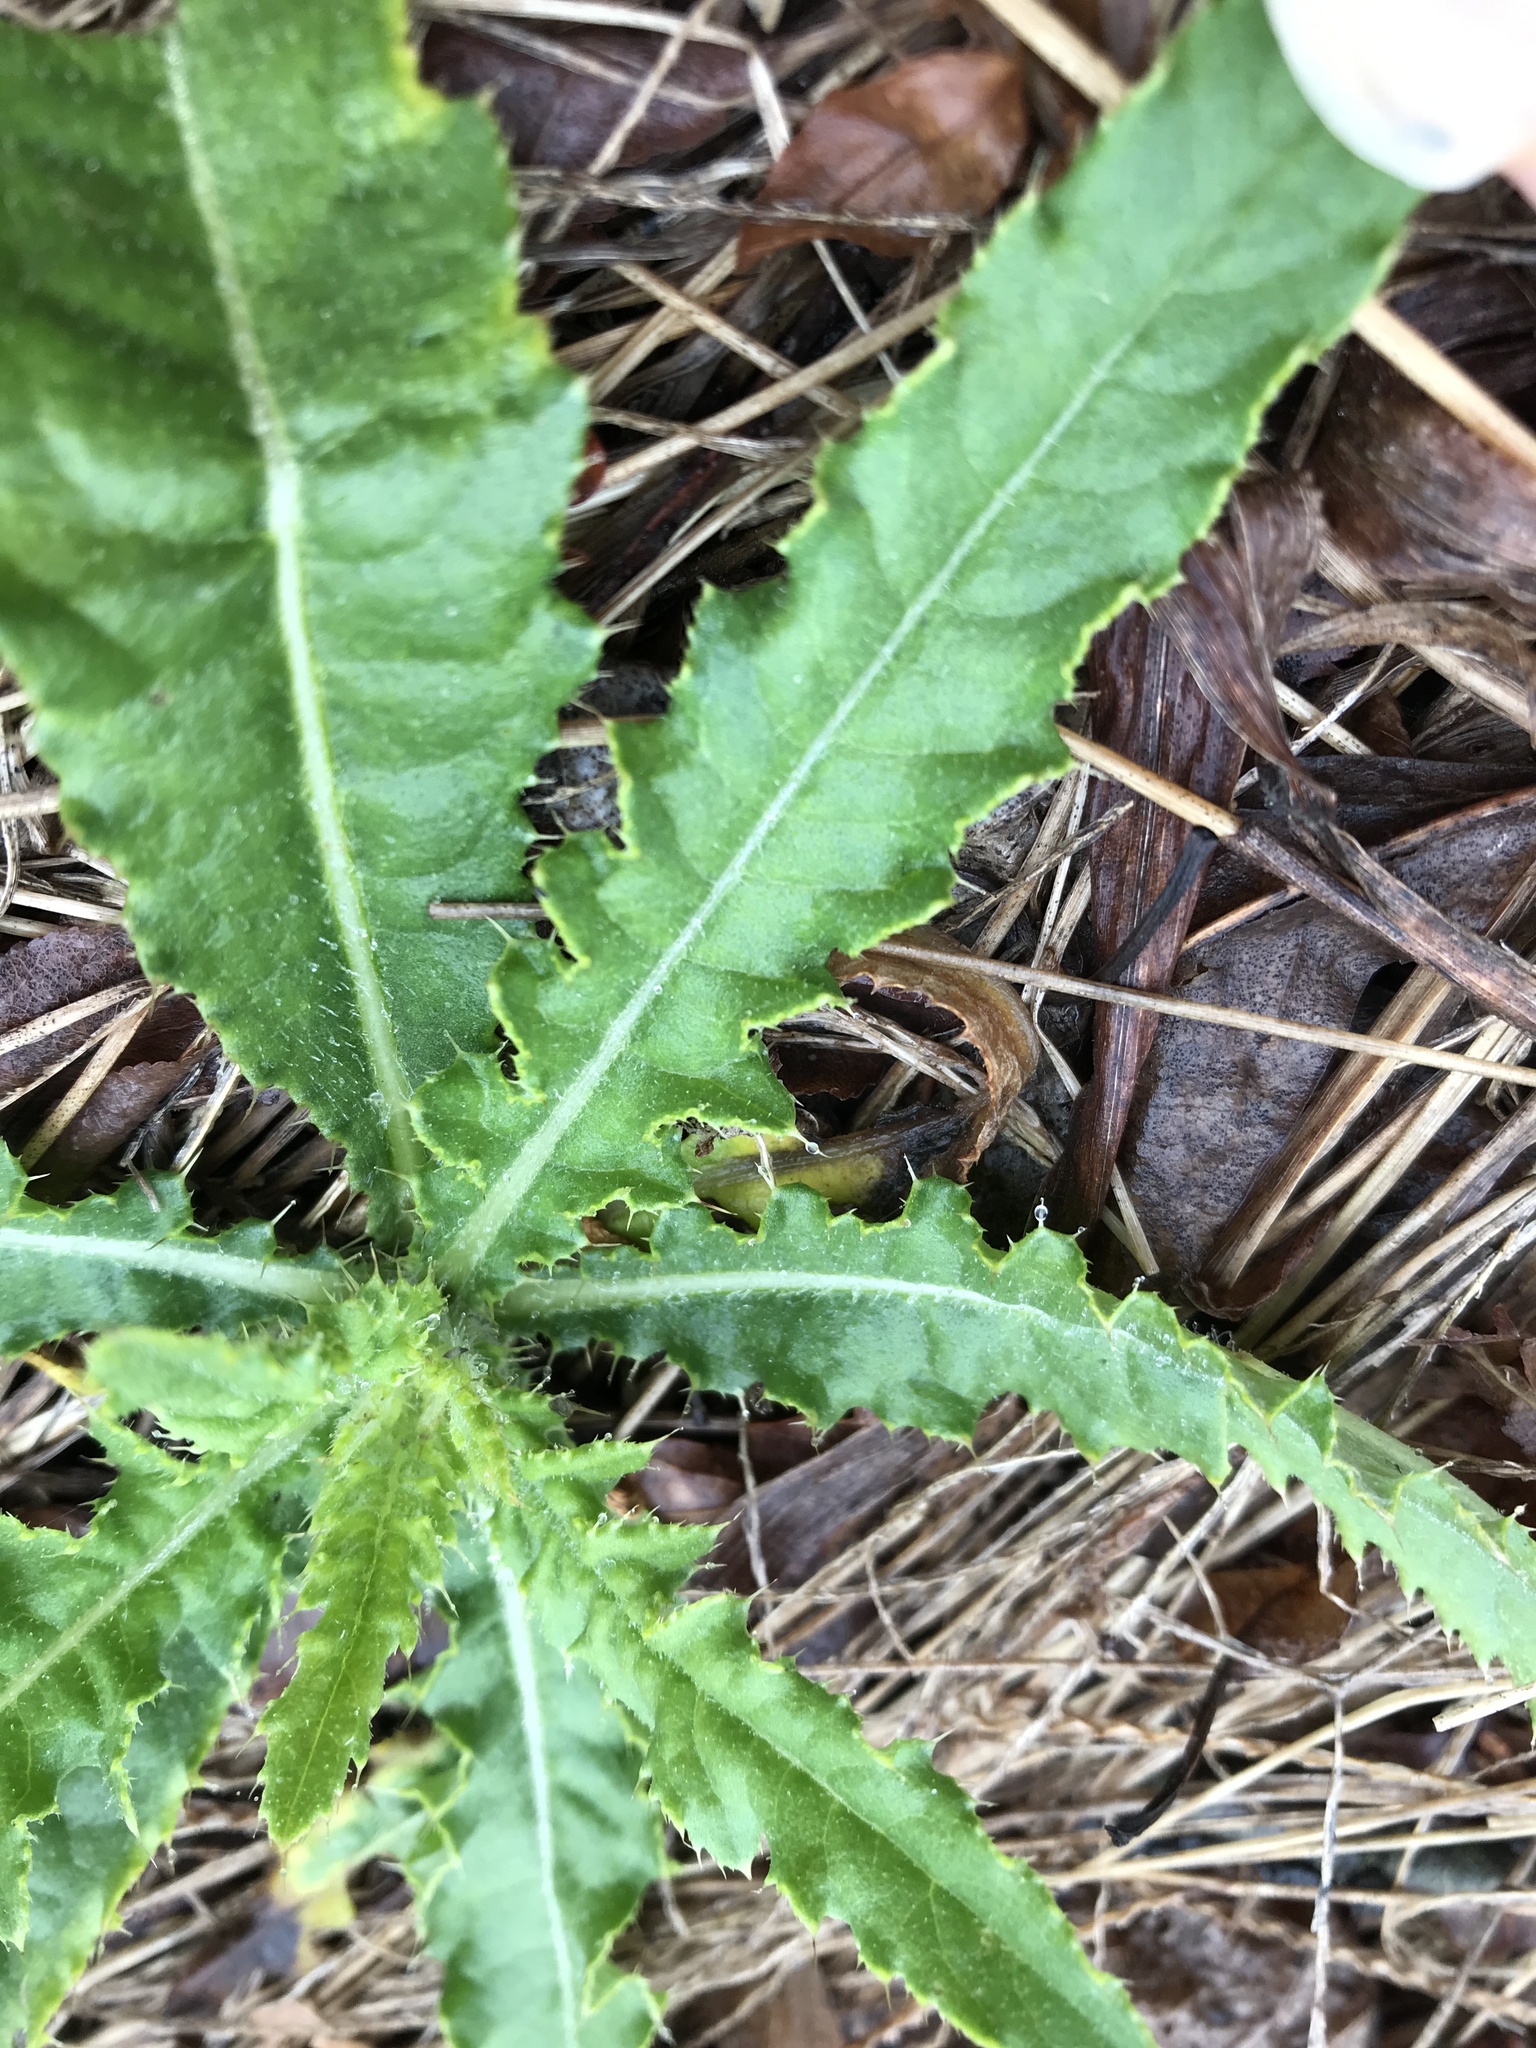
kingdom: Plantae
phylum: Tracheophyta
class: Magnoliopsida
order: Asterales
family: Asteraceae
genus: Cirsium
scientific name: Cirsium arvense
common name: Creeping thistle
